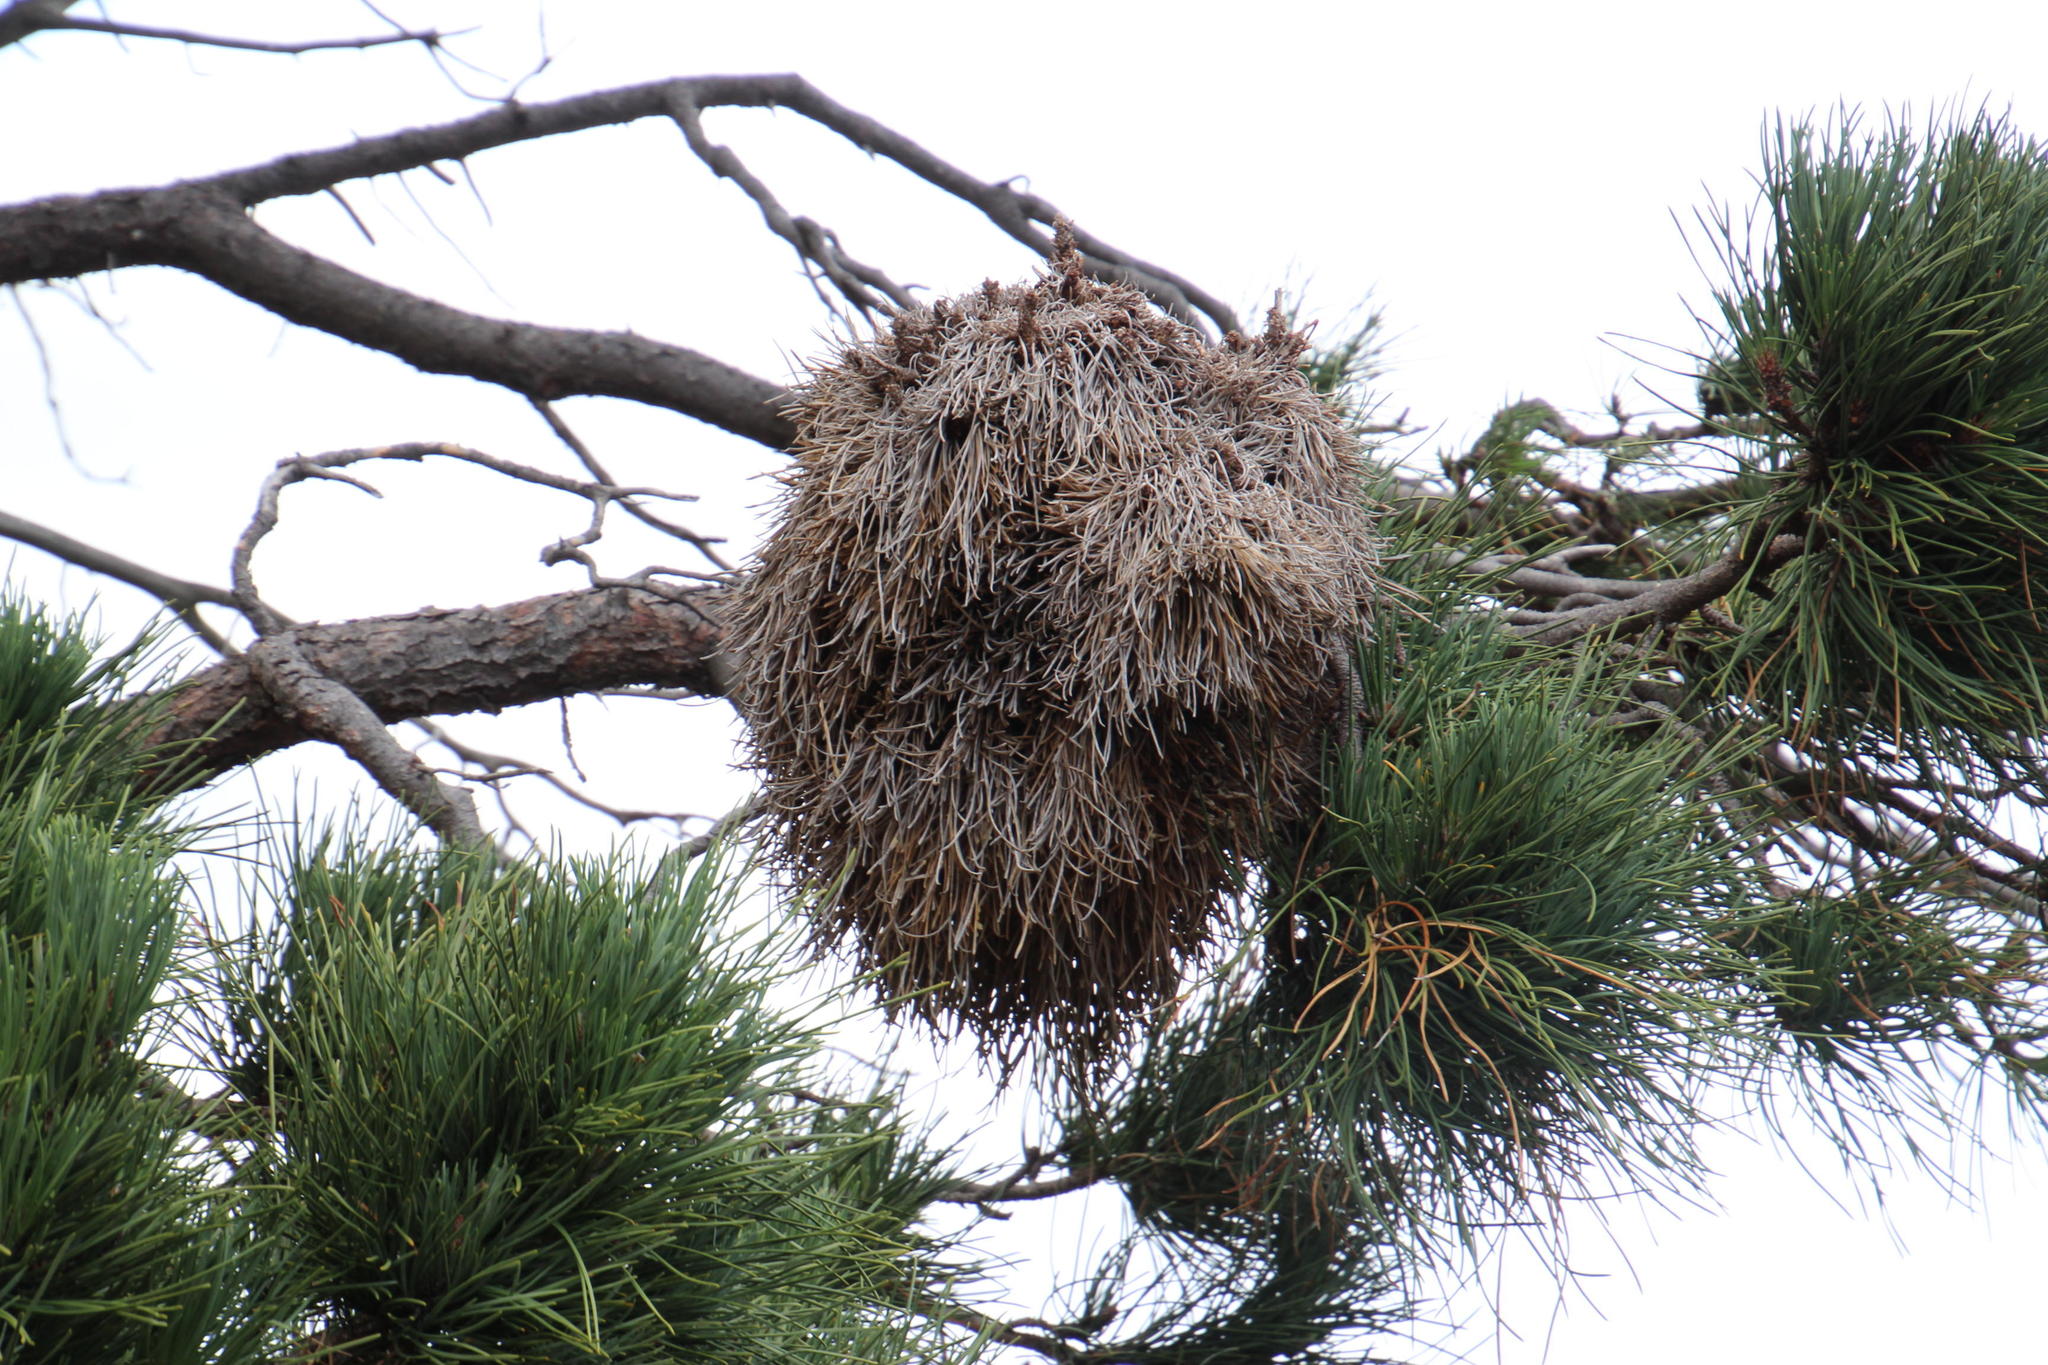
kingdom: Plantae
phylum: Tracheophyta
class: Pinopsida
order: Pinales
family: Pinaceae
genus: Pinus
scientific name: Pinus pinea
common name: Italian stone pine
